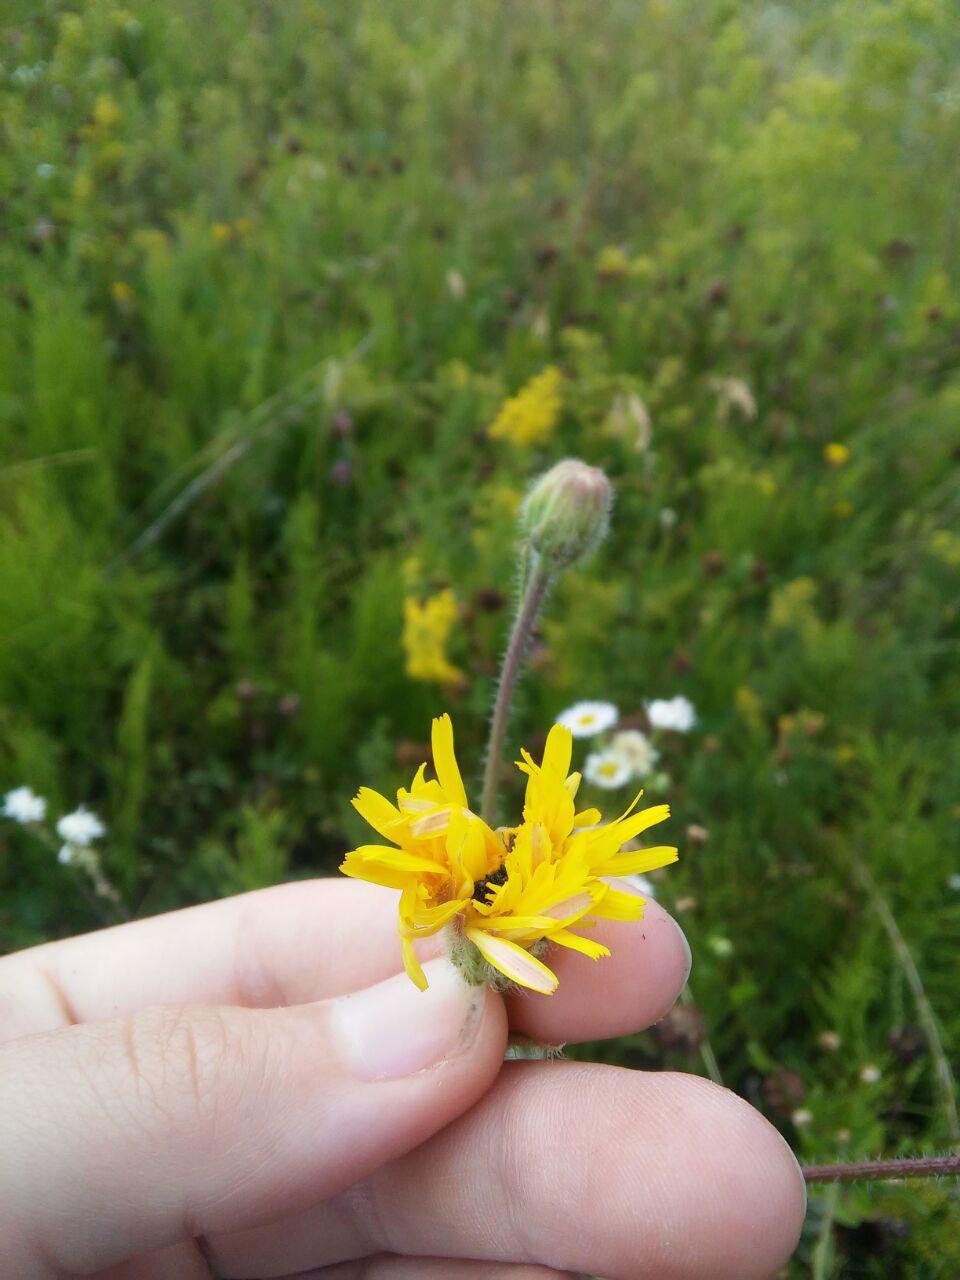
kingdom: Plantae
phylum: Tracheophyta
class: Magnoliopsida
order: Asterales
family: Asteraceae
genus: Crepis
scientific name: Crepis foetida
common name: Stinking hawk's-beard
